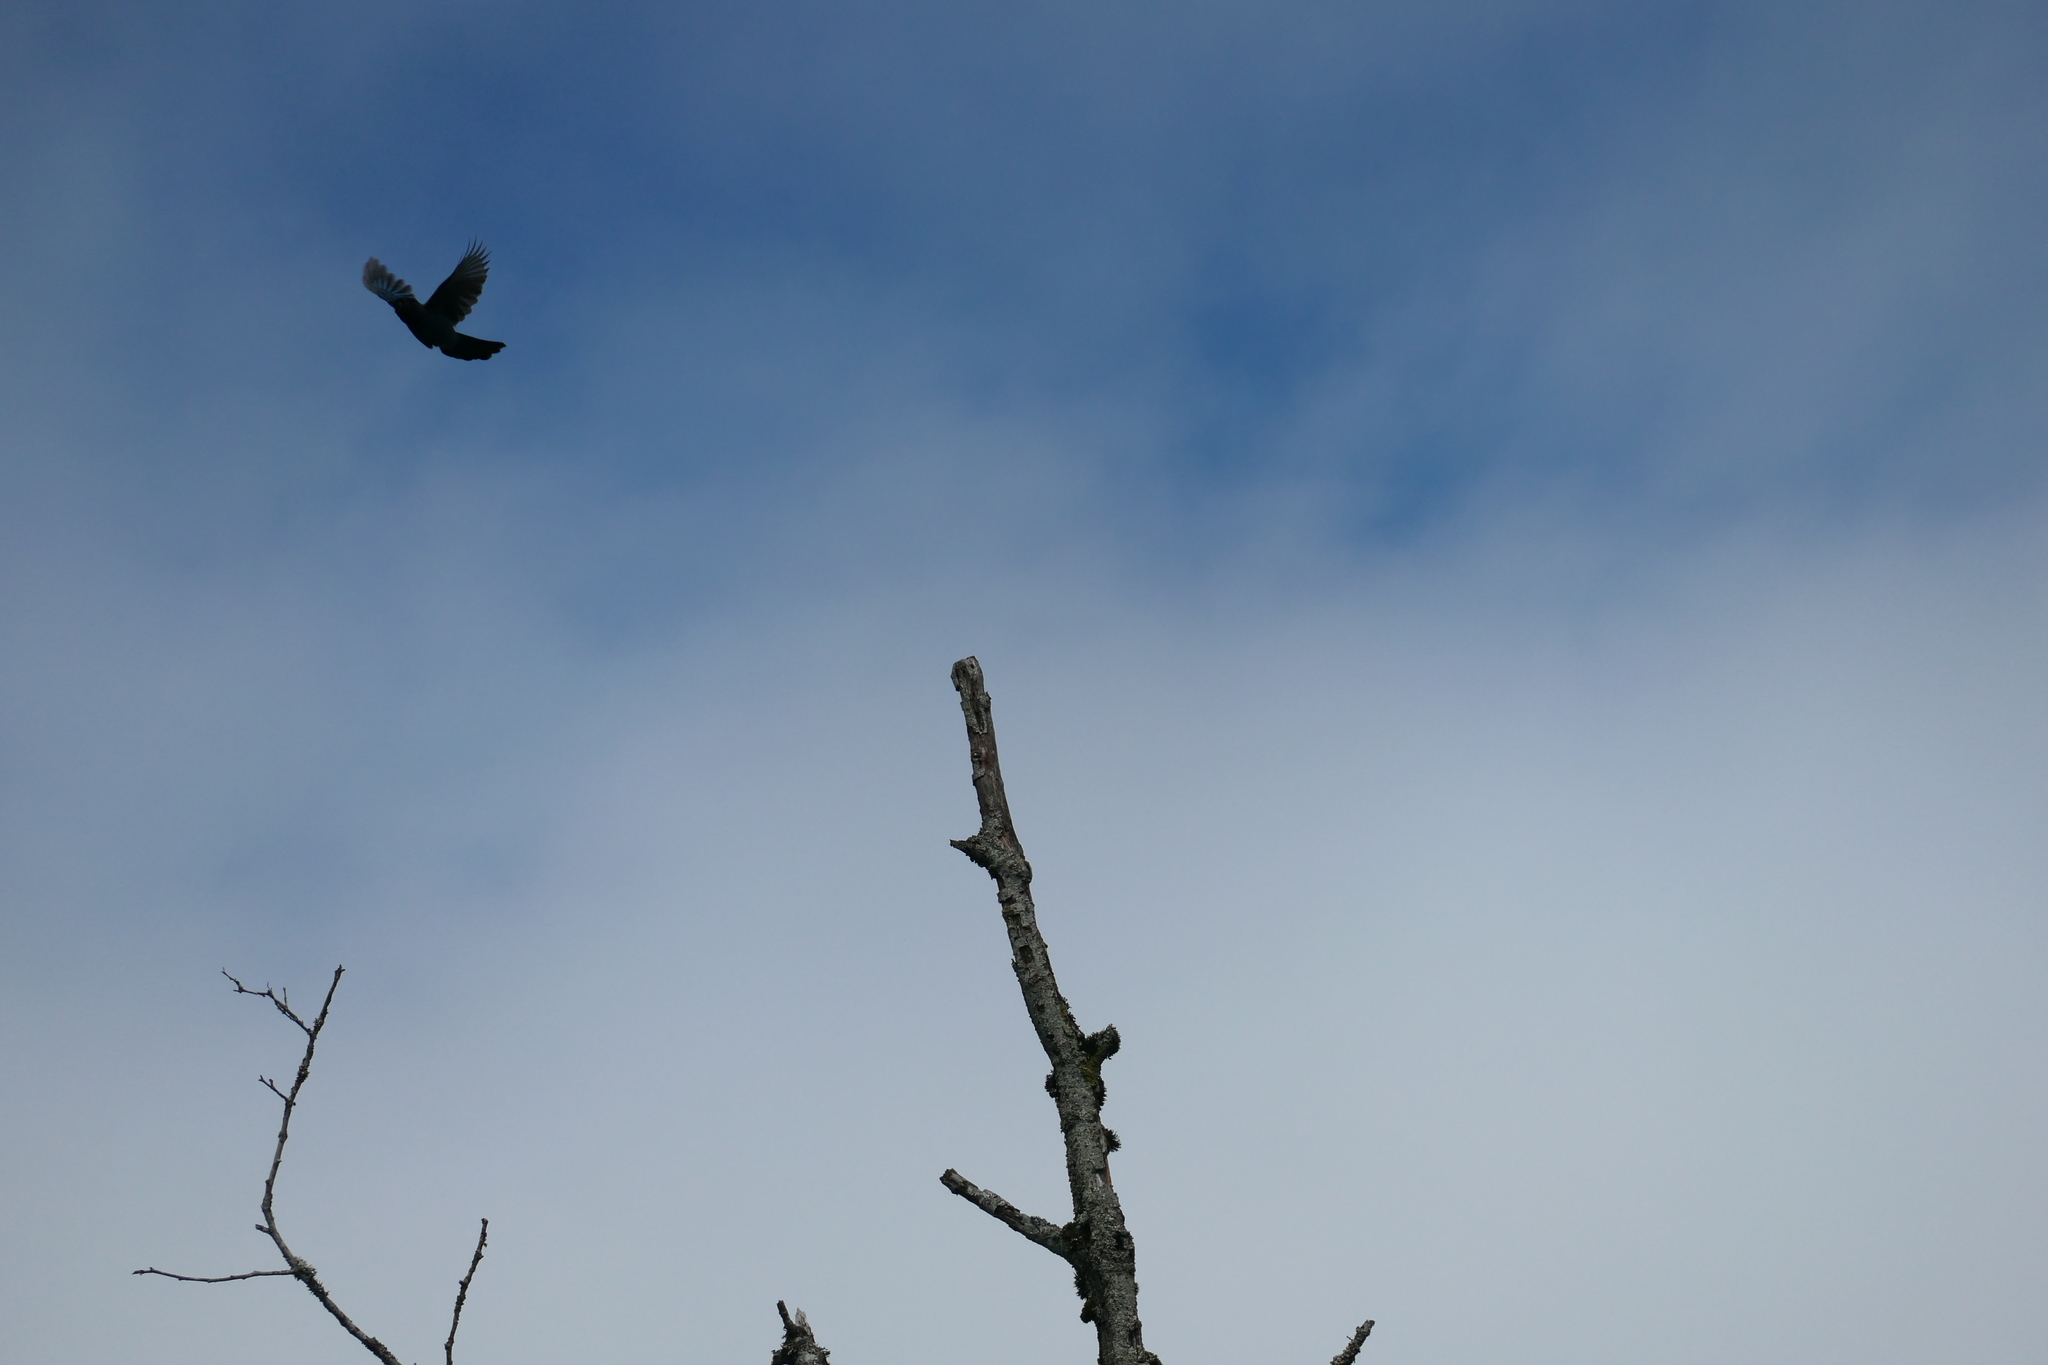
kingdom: Animalia
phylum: Chordata
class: Aves
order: Passeriformes
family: Corvidae
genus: Cyanocitta
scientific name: Cyanocitta stelleri
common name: Steller's jay
